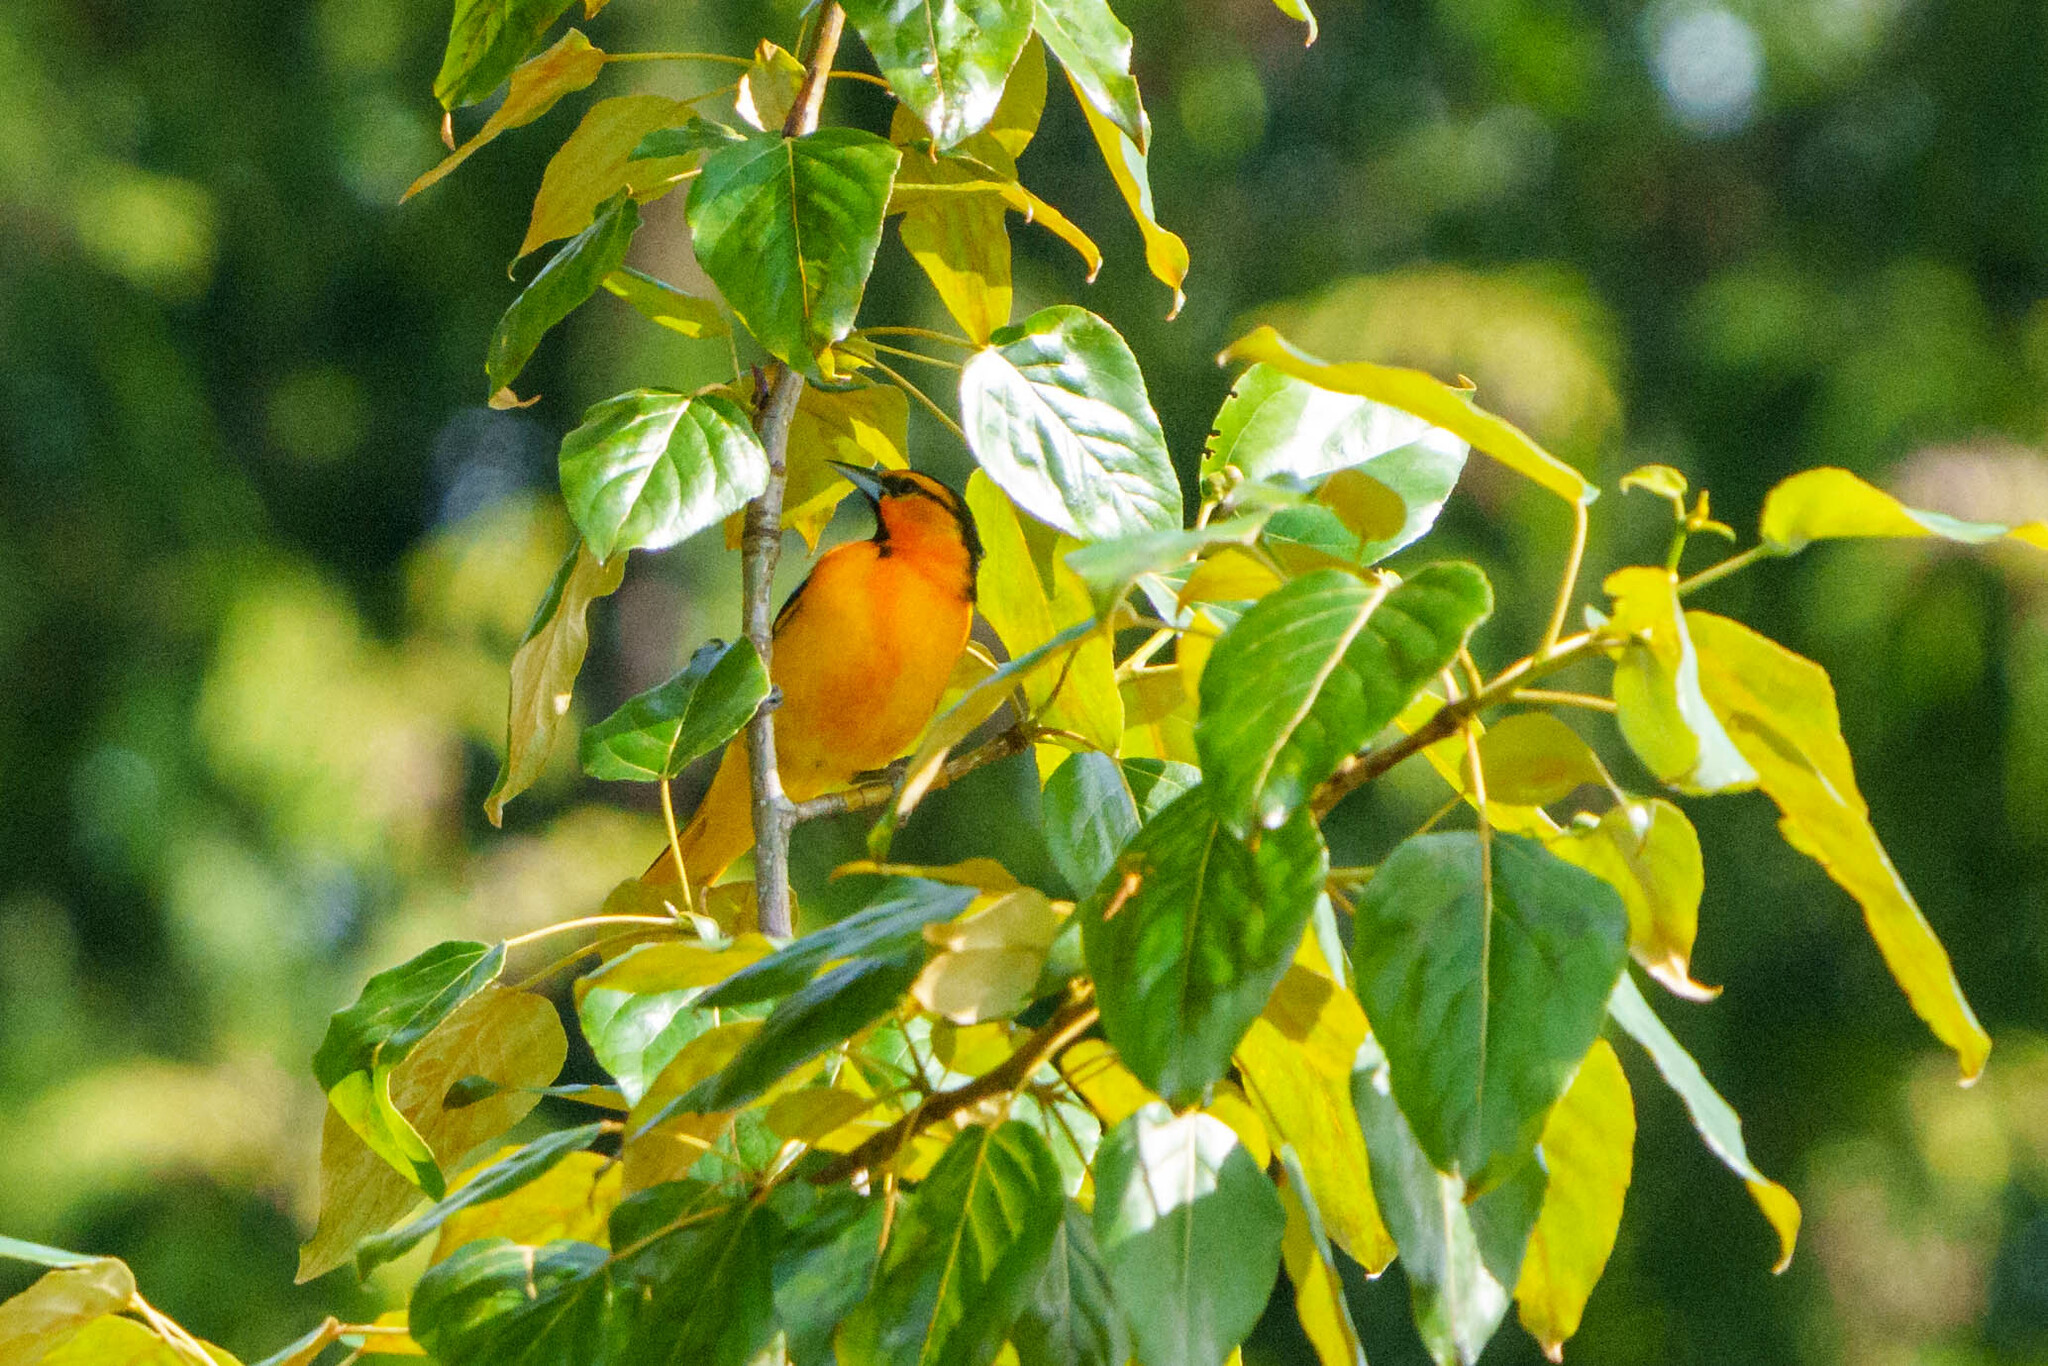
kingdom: Animalia
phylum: Chordata
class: Aves
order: Passeriformes
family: Icteridae
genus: Icterus
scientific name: Icterus bullockii
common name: Bullock's oriole
